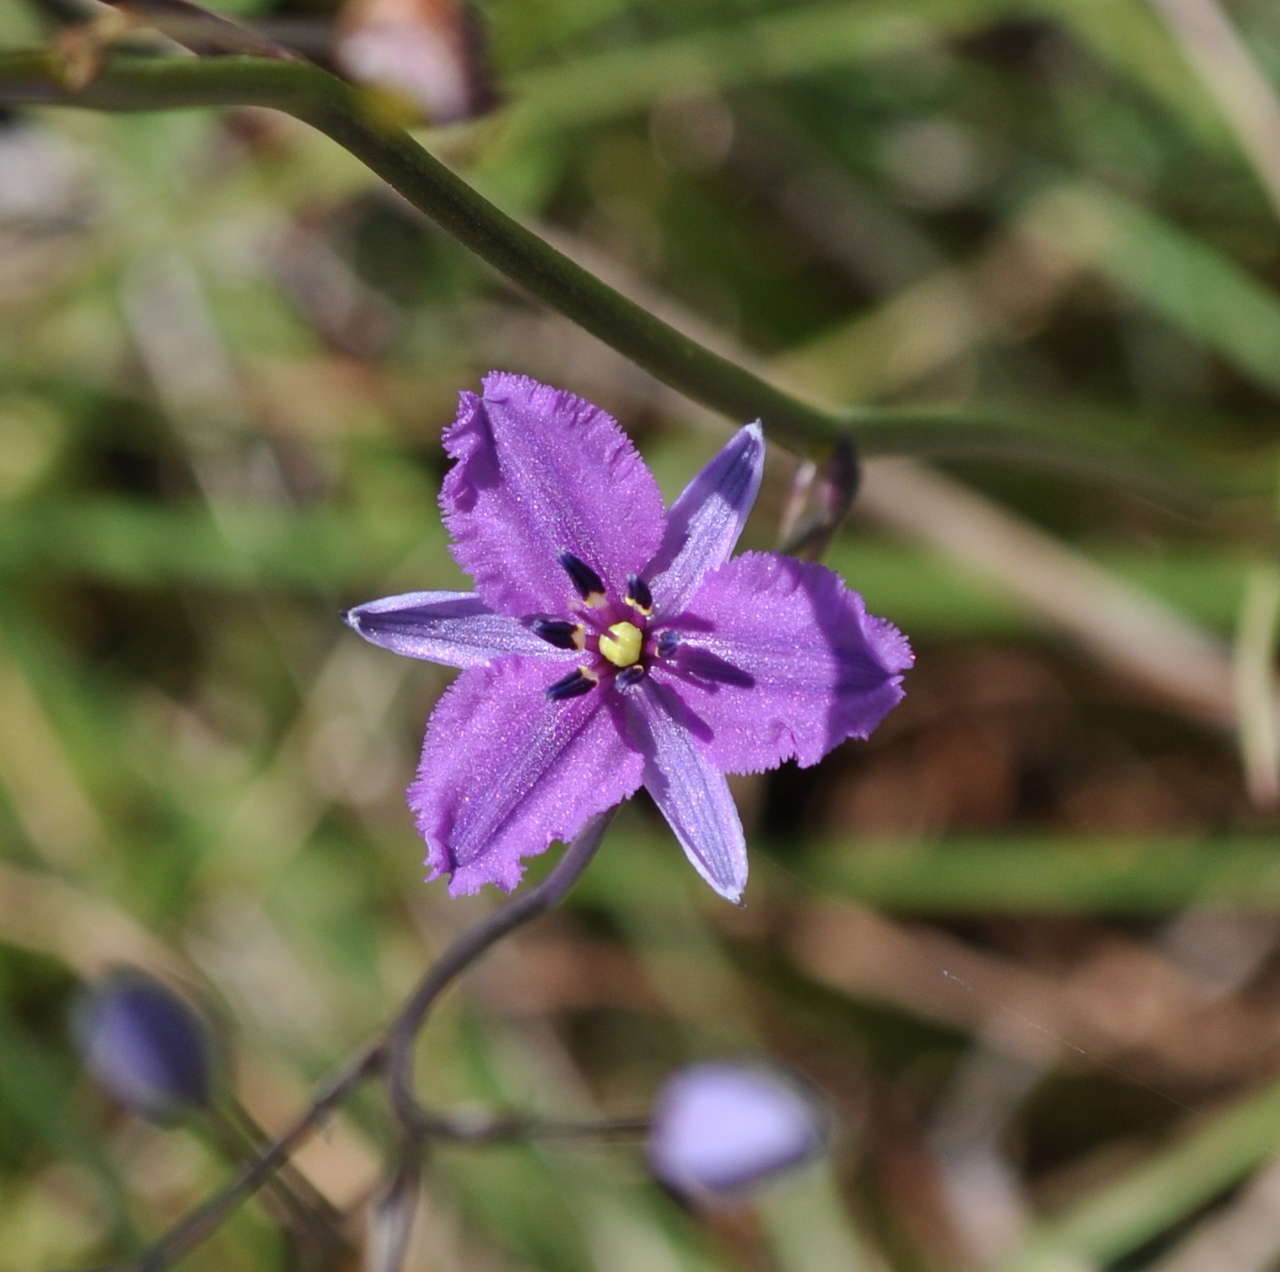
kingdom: Plantae
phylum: Tracheophyta
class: Liliopsida
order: Asparagales
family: Asparagaceae
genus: Arthropodium
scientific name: Arthropodium strictum
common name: Chocolate-lily
